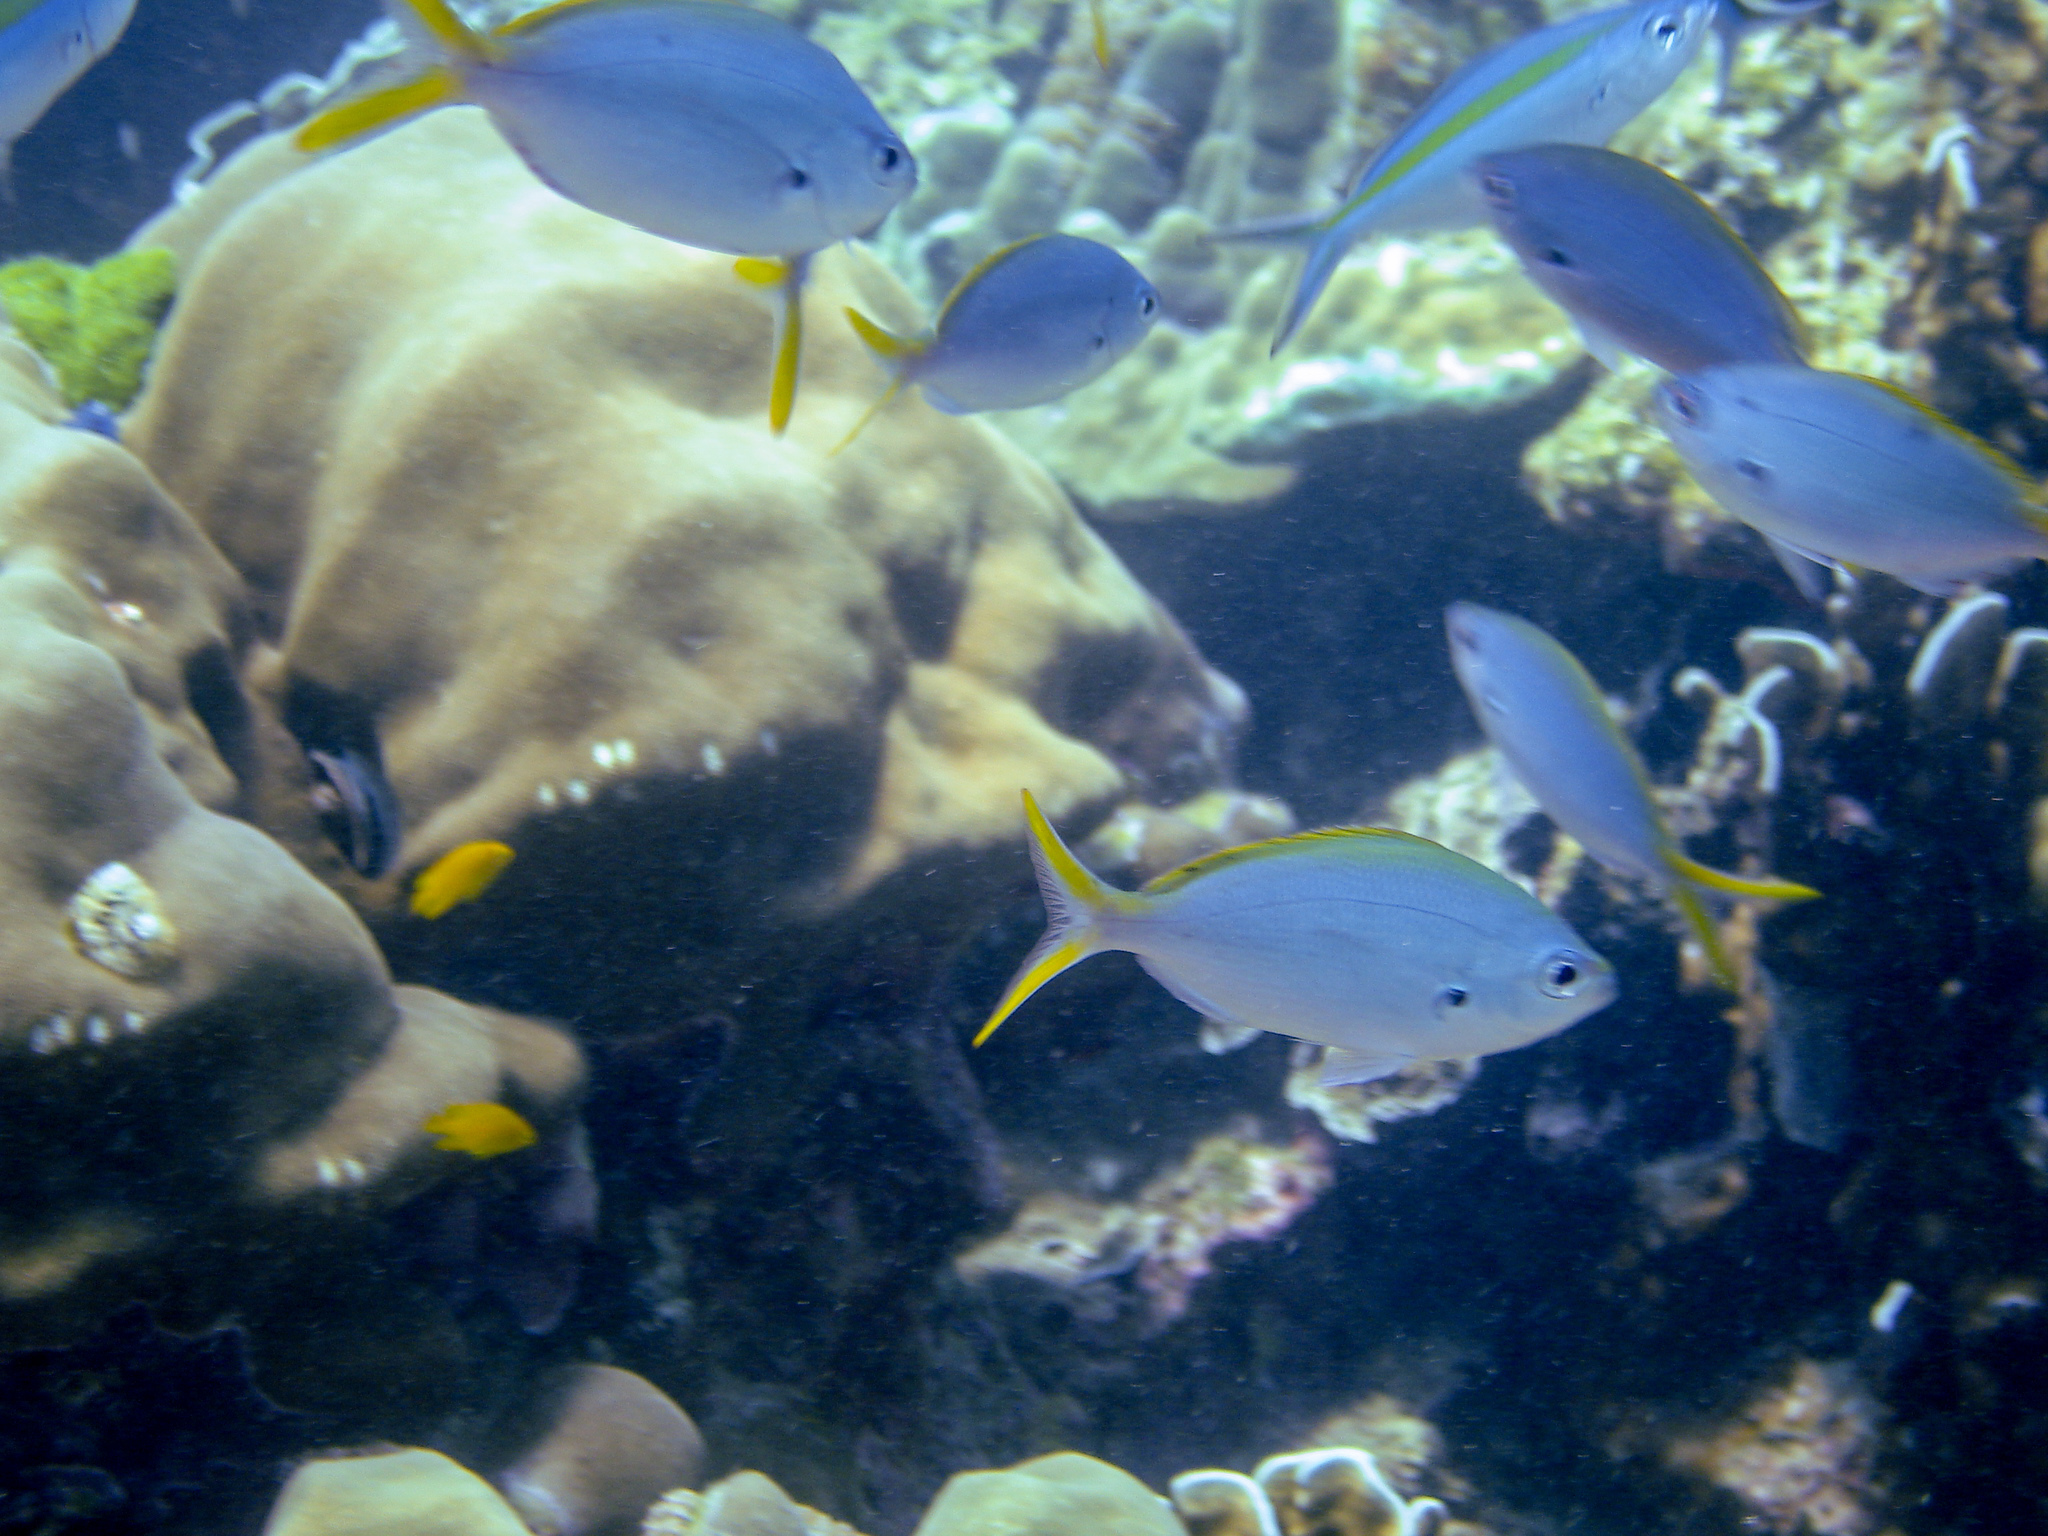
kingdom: Animalia
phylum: Chordata
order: Perciformes
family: Caesionidae
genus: Caesio
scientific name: Caesio caerulaurea
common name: Blue and gold fusilier
